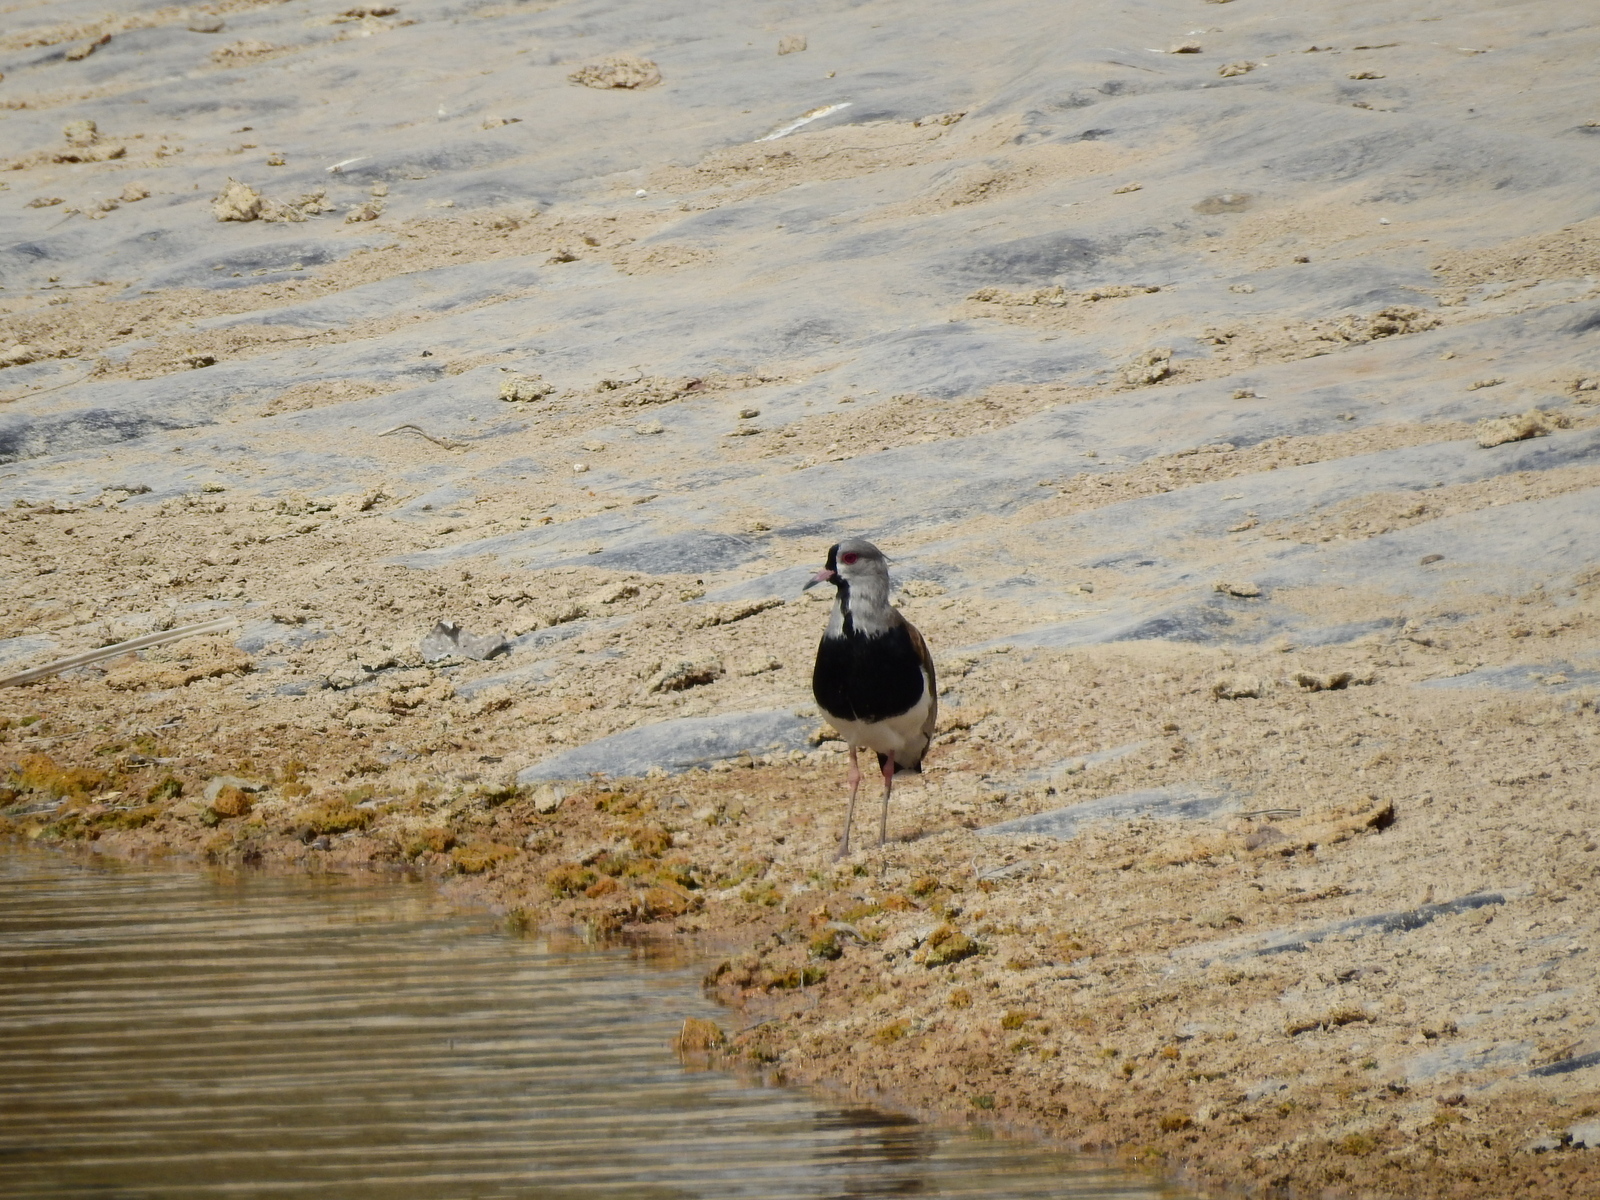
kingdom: Animalia
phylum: Chordata
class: Aves
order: Charadriiformes
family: Charadriidae
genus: Vanellus
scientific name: Vanellus chilensis
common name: Southern lapwing
